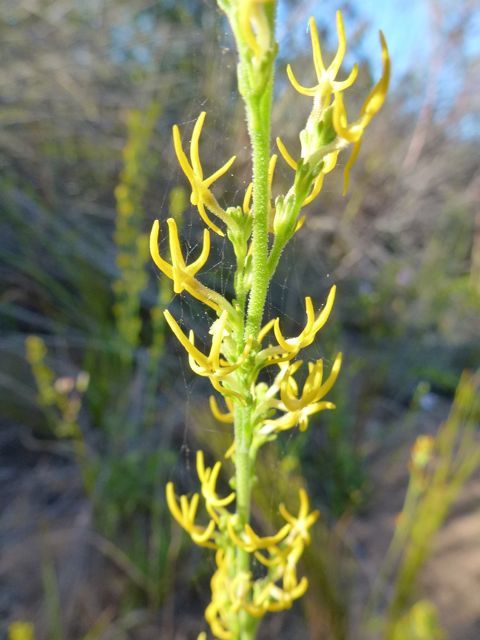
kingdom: Plantae
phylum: Tracheophyta
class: Magnoliopsida
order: Lamiales
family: Scrophulariaceae
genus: Manulea
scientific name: Manulea cheiranthus
